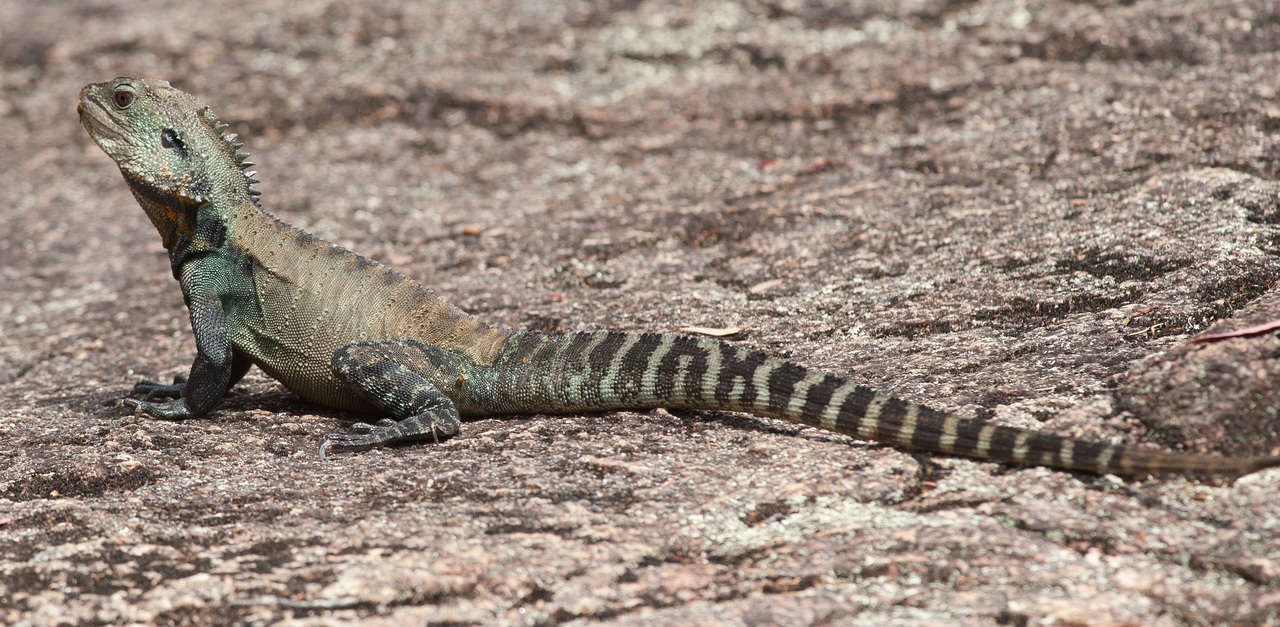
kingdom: Animalia
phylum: Chordata
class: Squamata
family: Agamidae
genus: Intellagama
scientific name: Intellagama lesueurii
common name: Eastern water dragon
